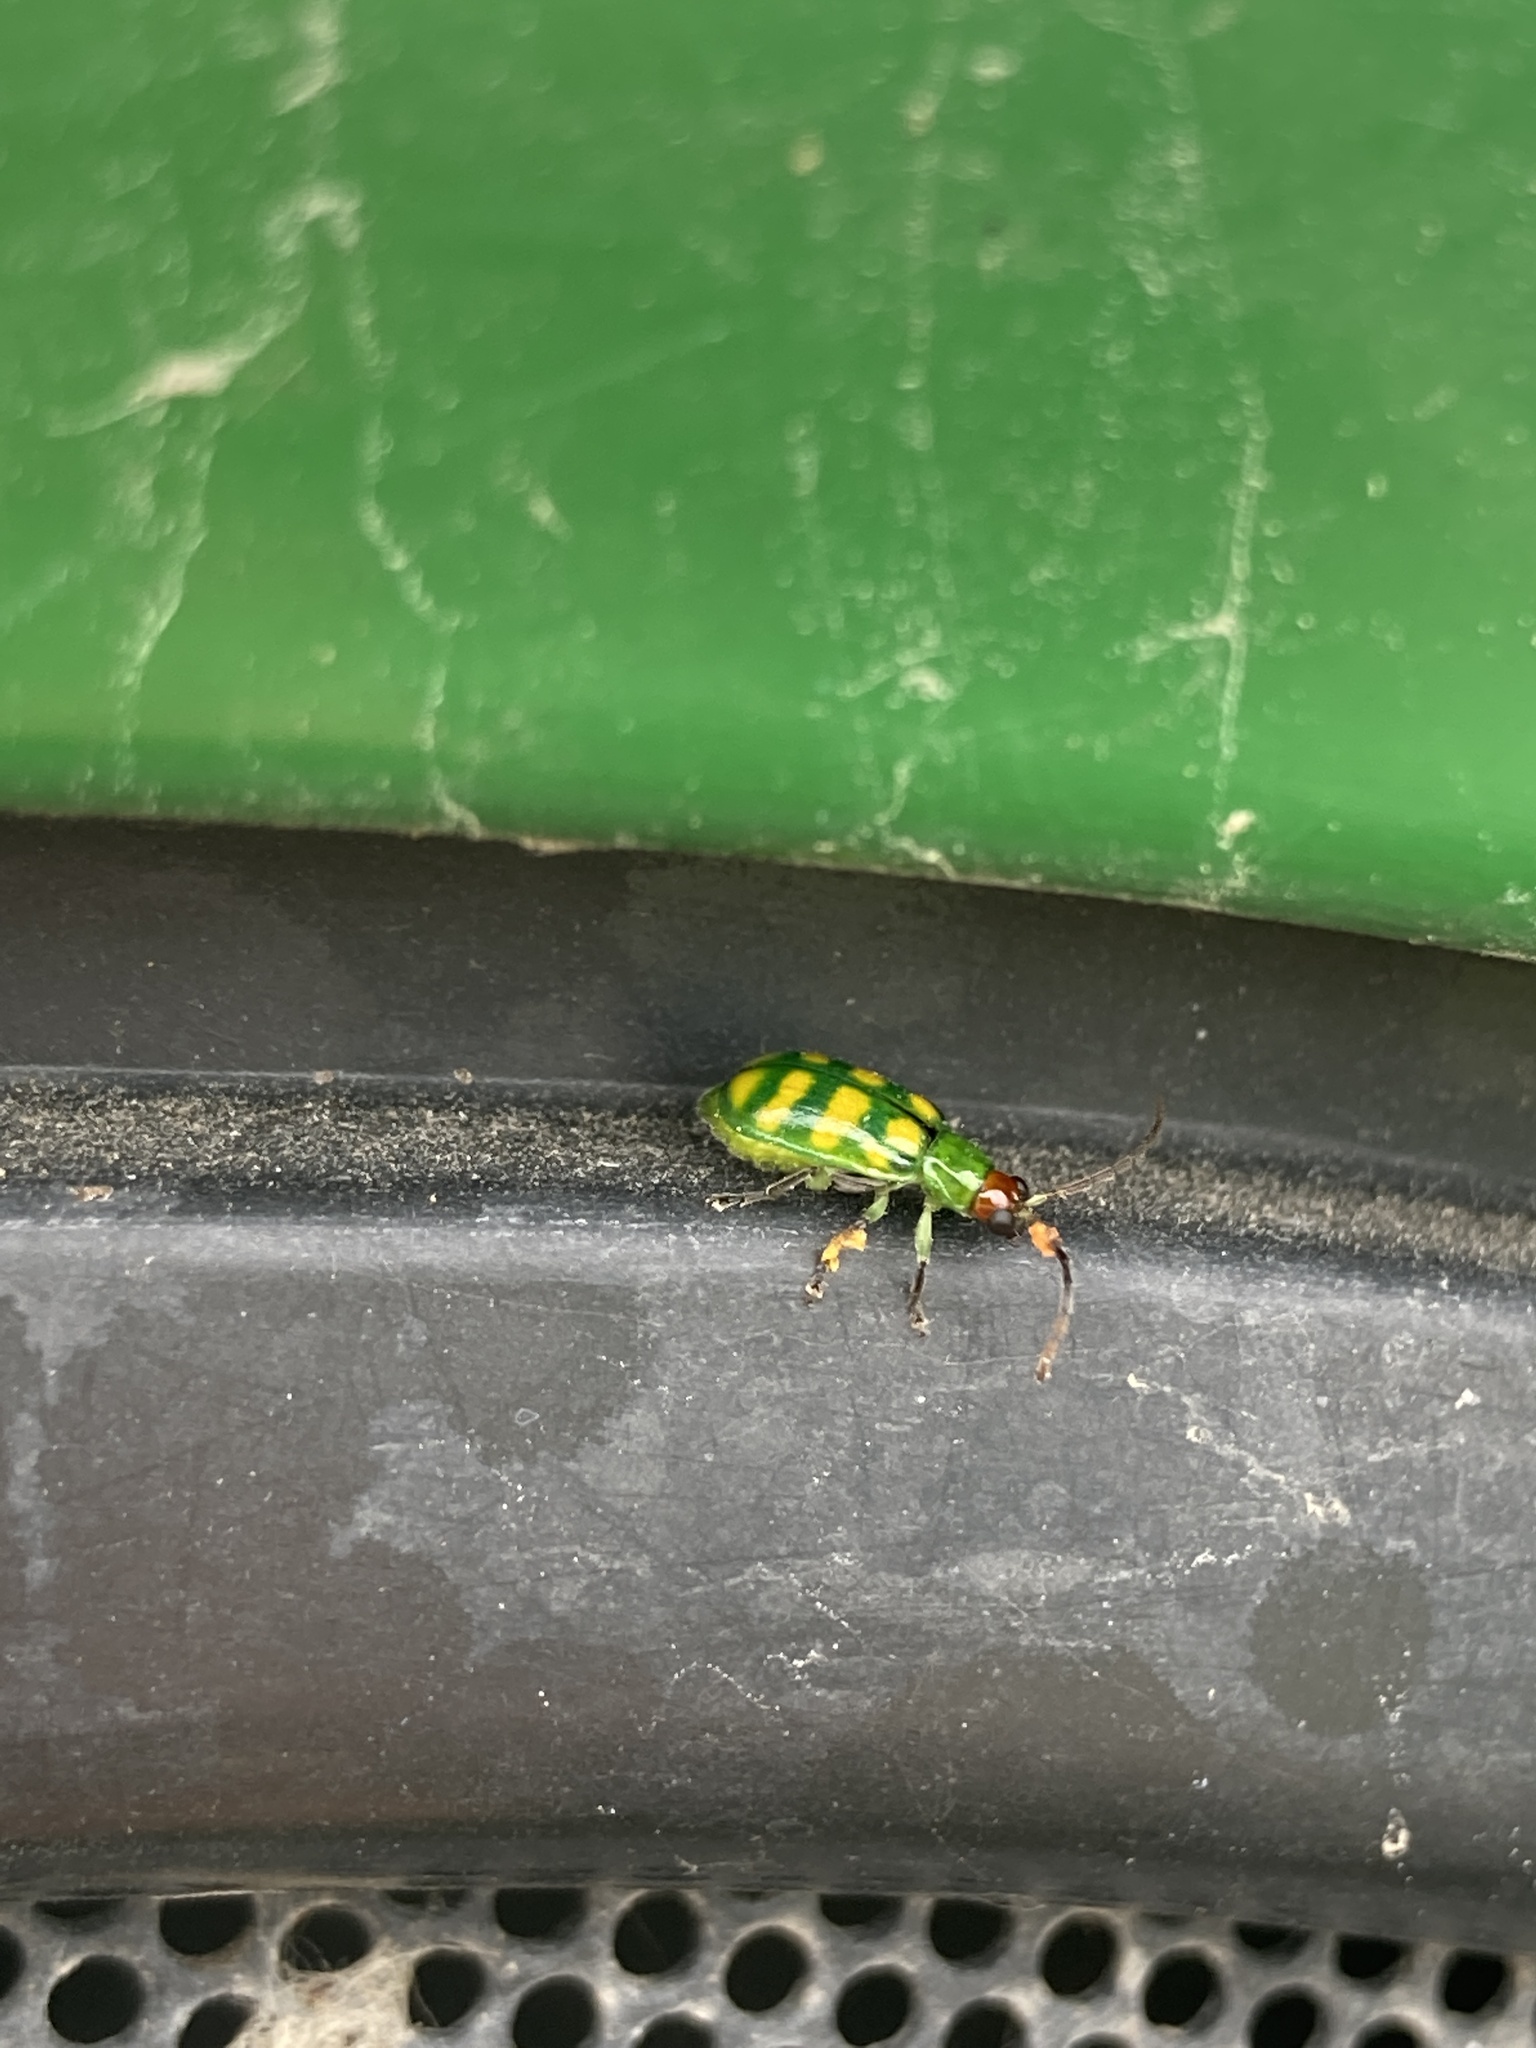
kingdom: Animalia
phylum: Arthropoda
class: Insecta
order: Coleoptera
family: Chrysomelidae
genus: Diabrotica
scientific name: Diabrotica balteata
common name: Leaf beetle
